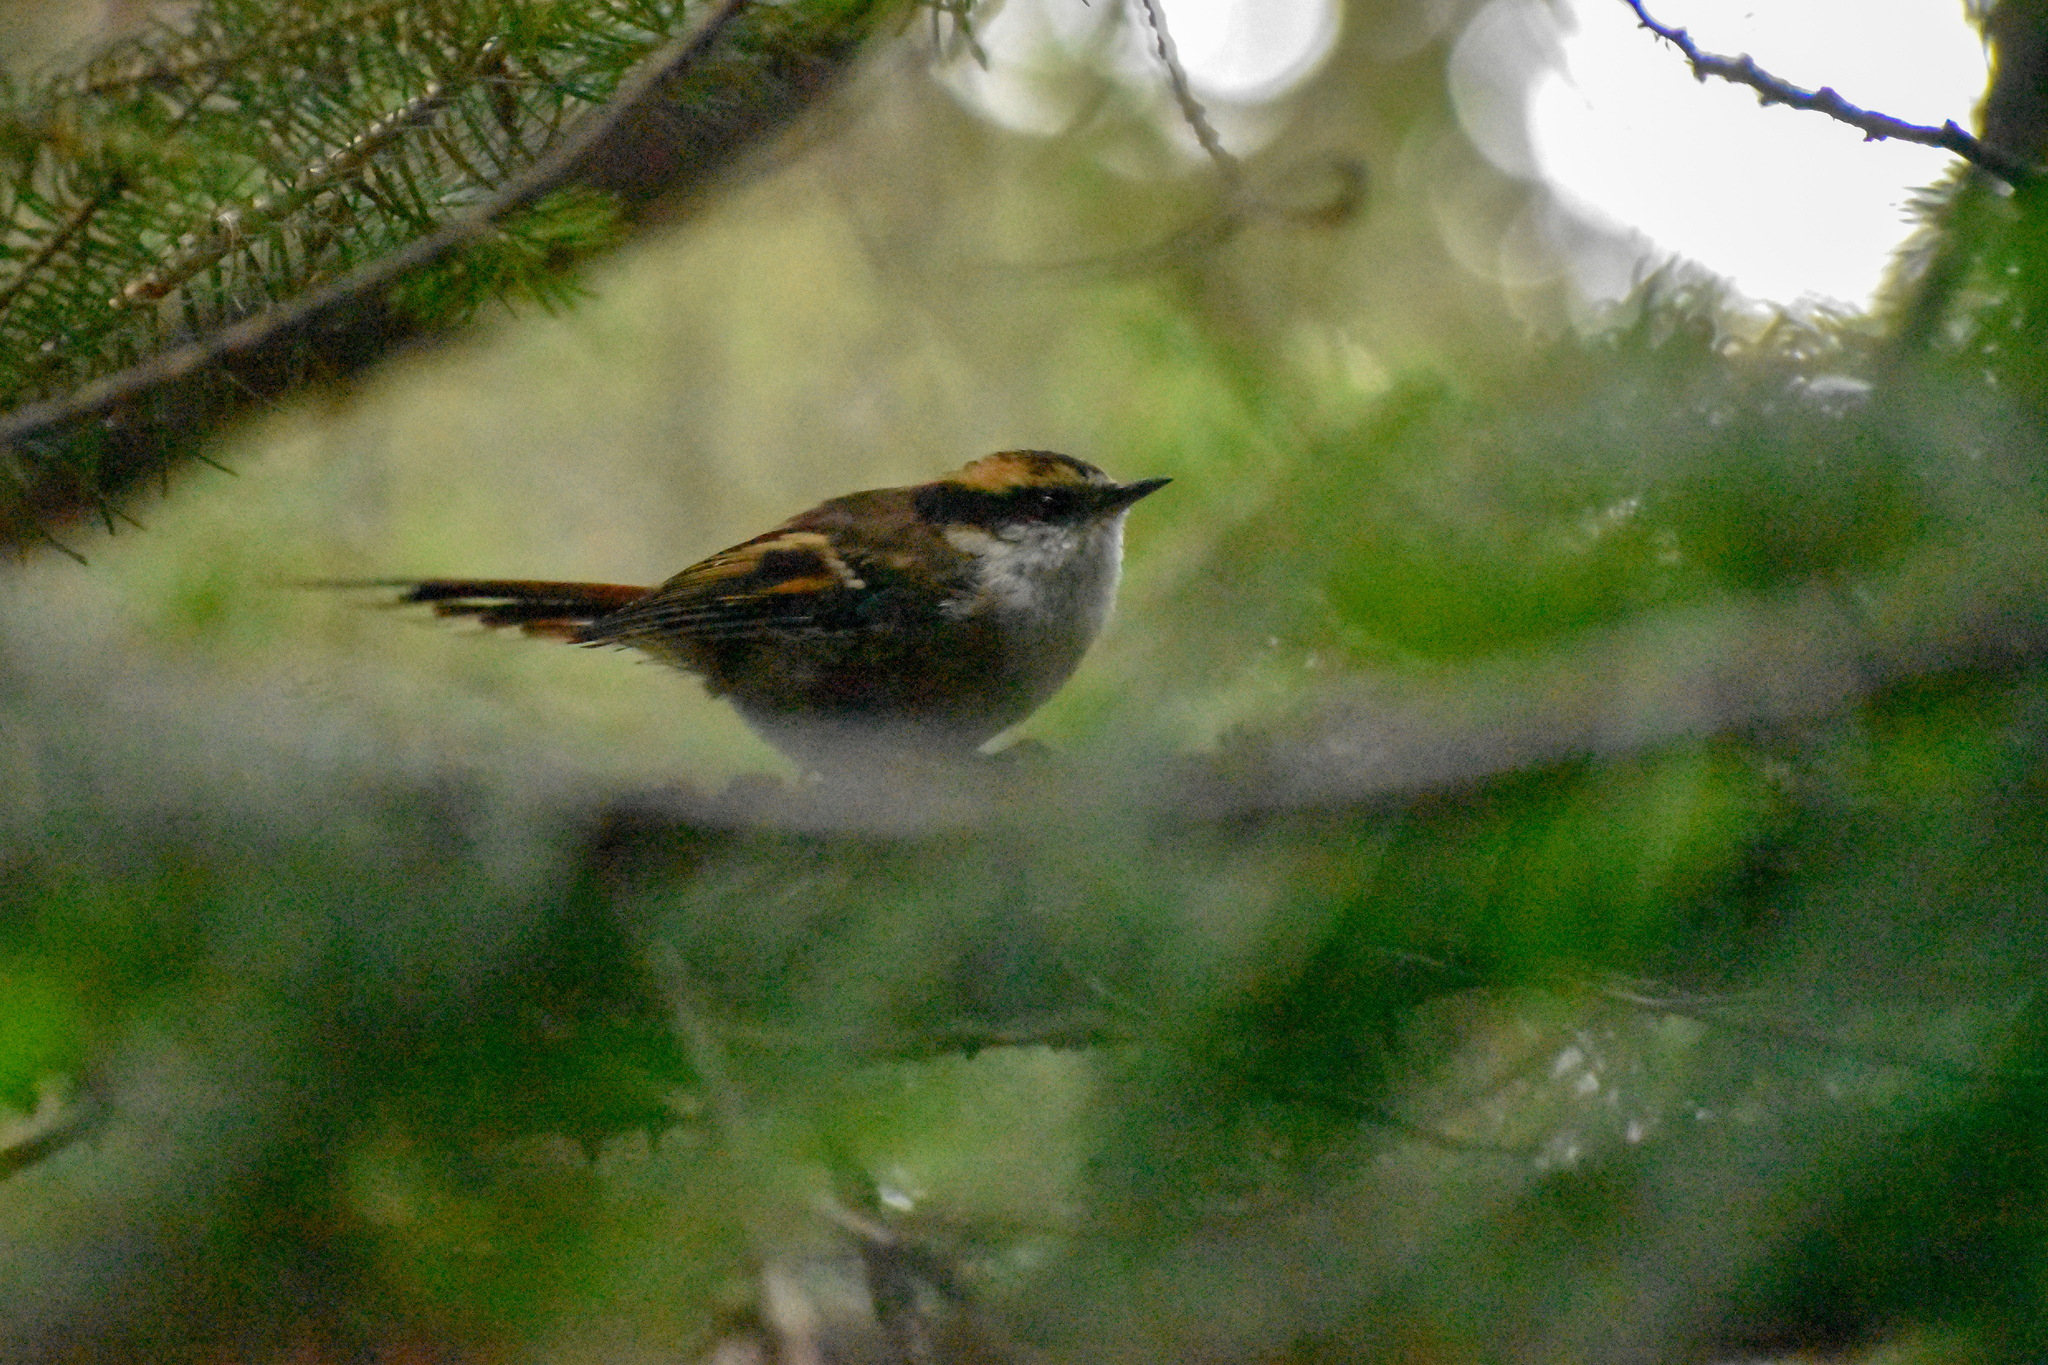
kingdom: Animalia
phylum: Chordata
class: Aves
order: Passeriformes
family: Furnariidae
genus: Aphrastura
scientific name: Aphrastura spinicauda
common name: Thorn-tailed rayadito
